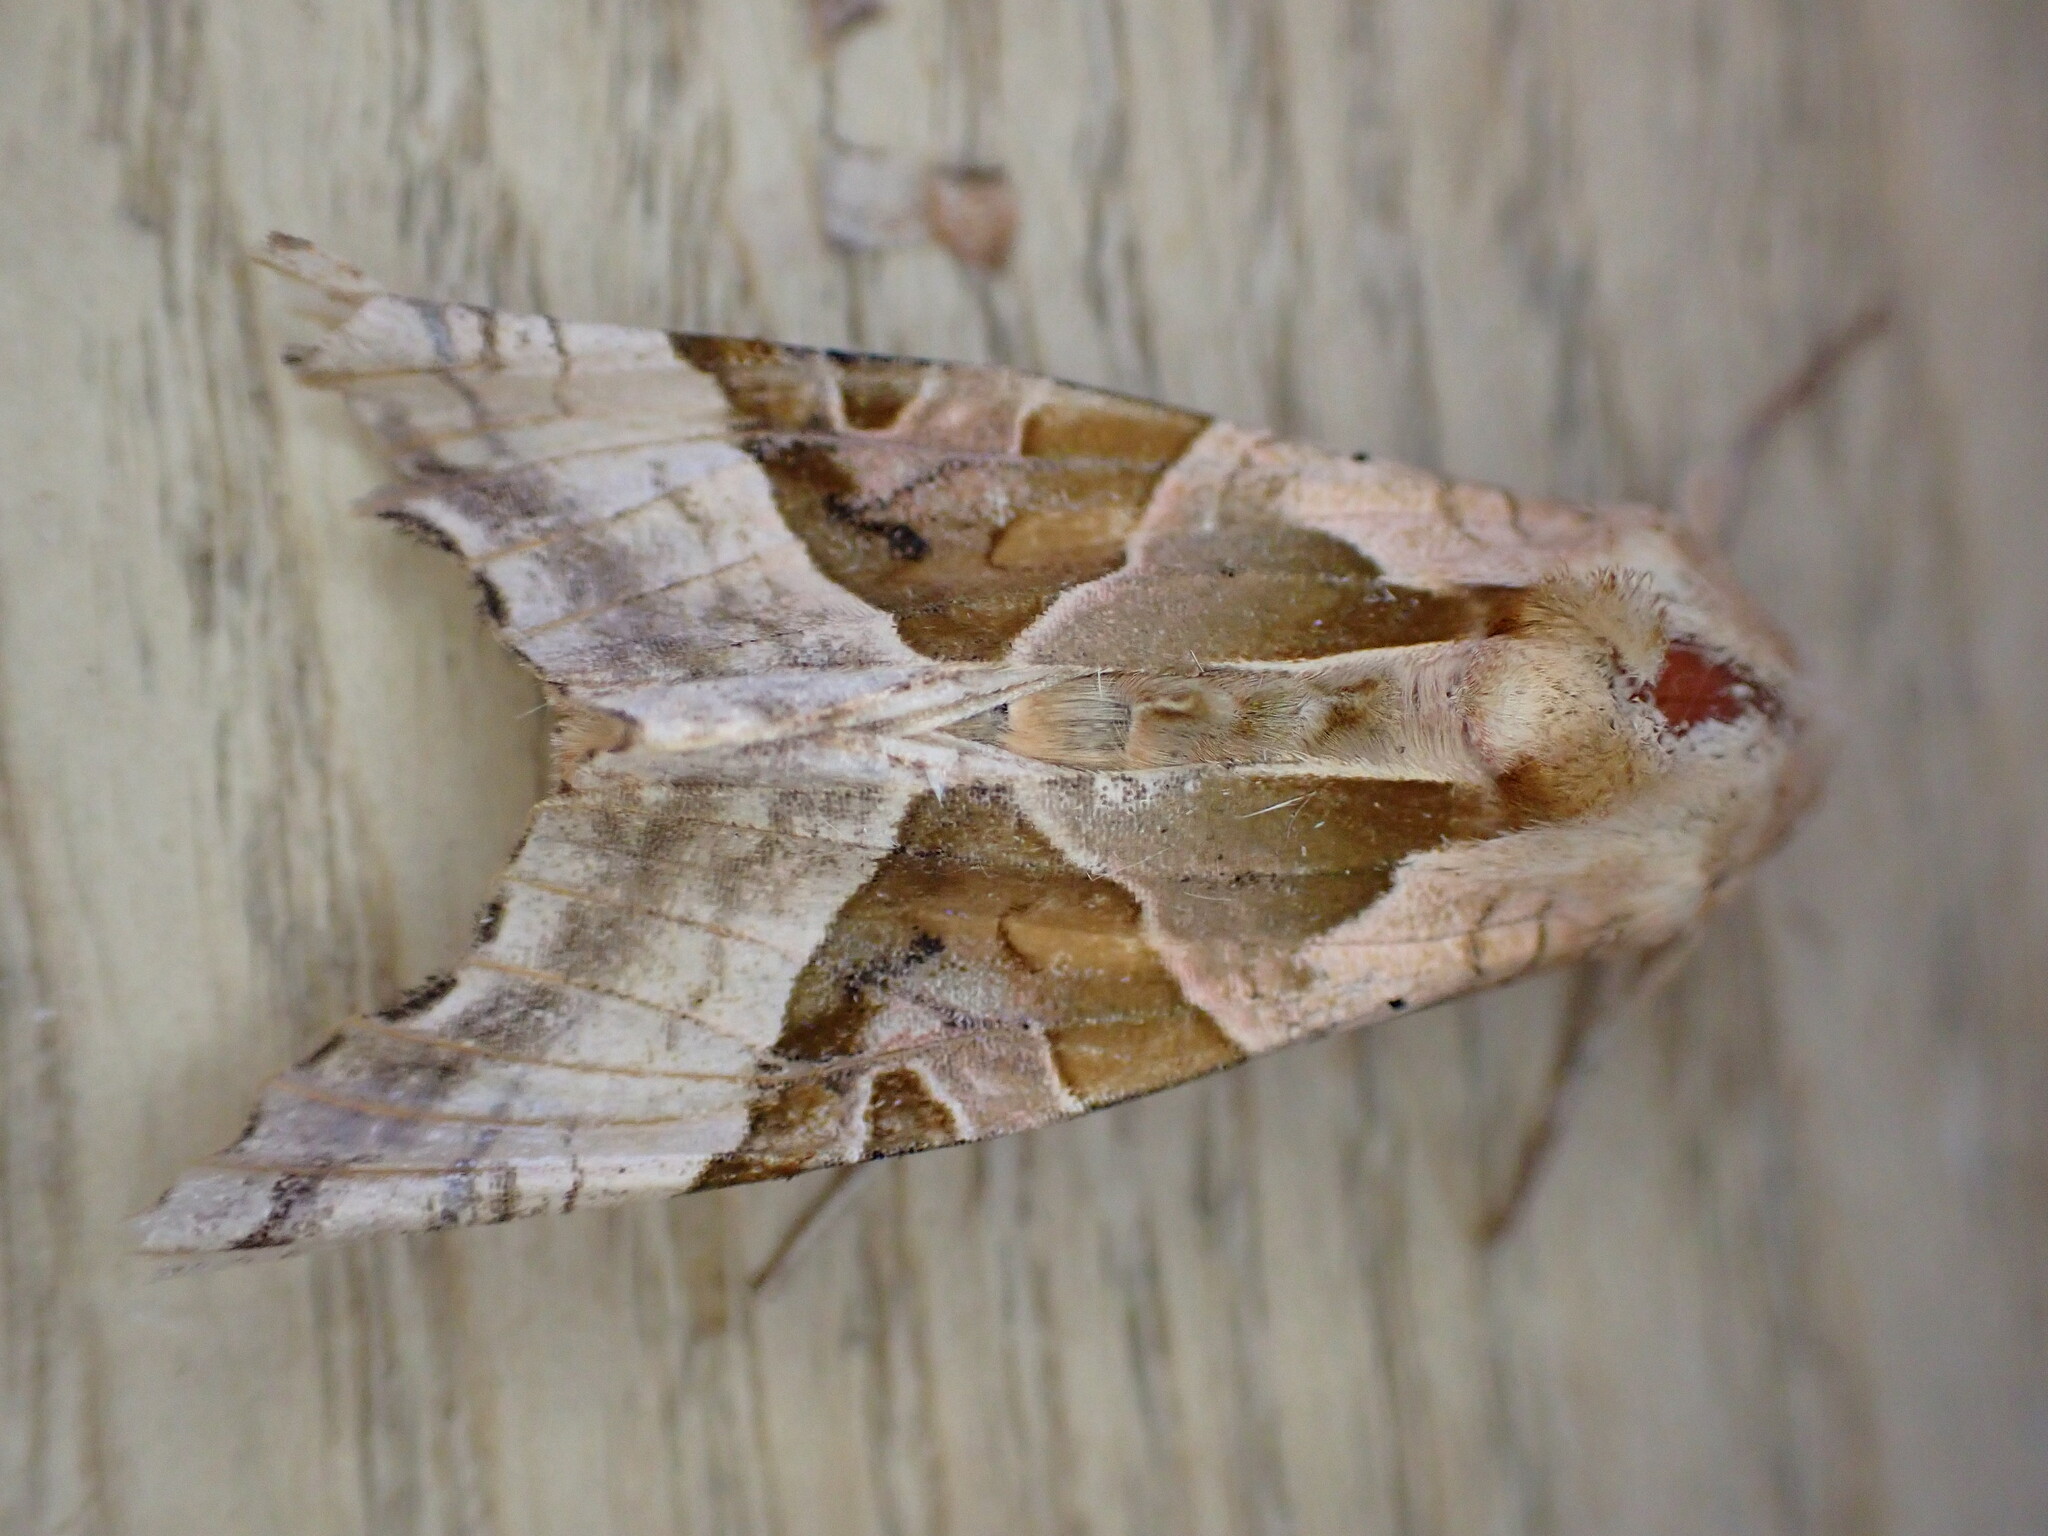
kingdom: Animalia
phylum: Arthropoda
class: Insecta
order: Lepidoptera
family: Noctuidae
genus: Phlogophora
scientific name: Phlogophora meticulosa
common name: Angle shades
